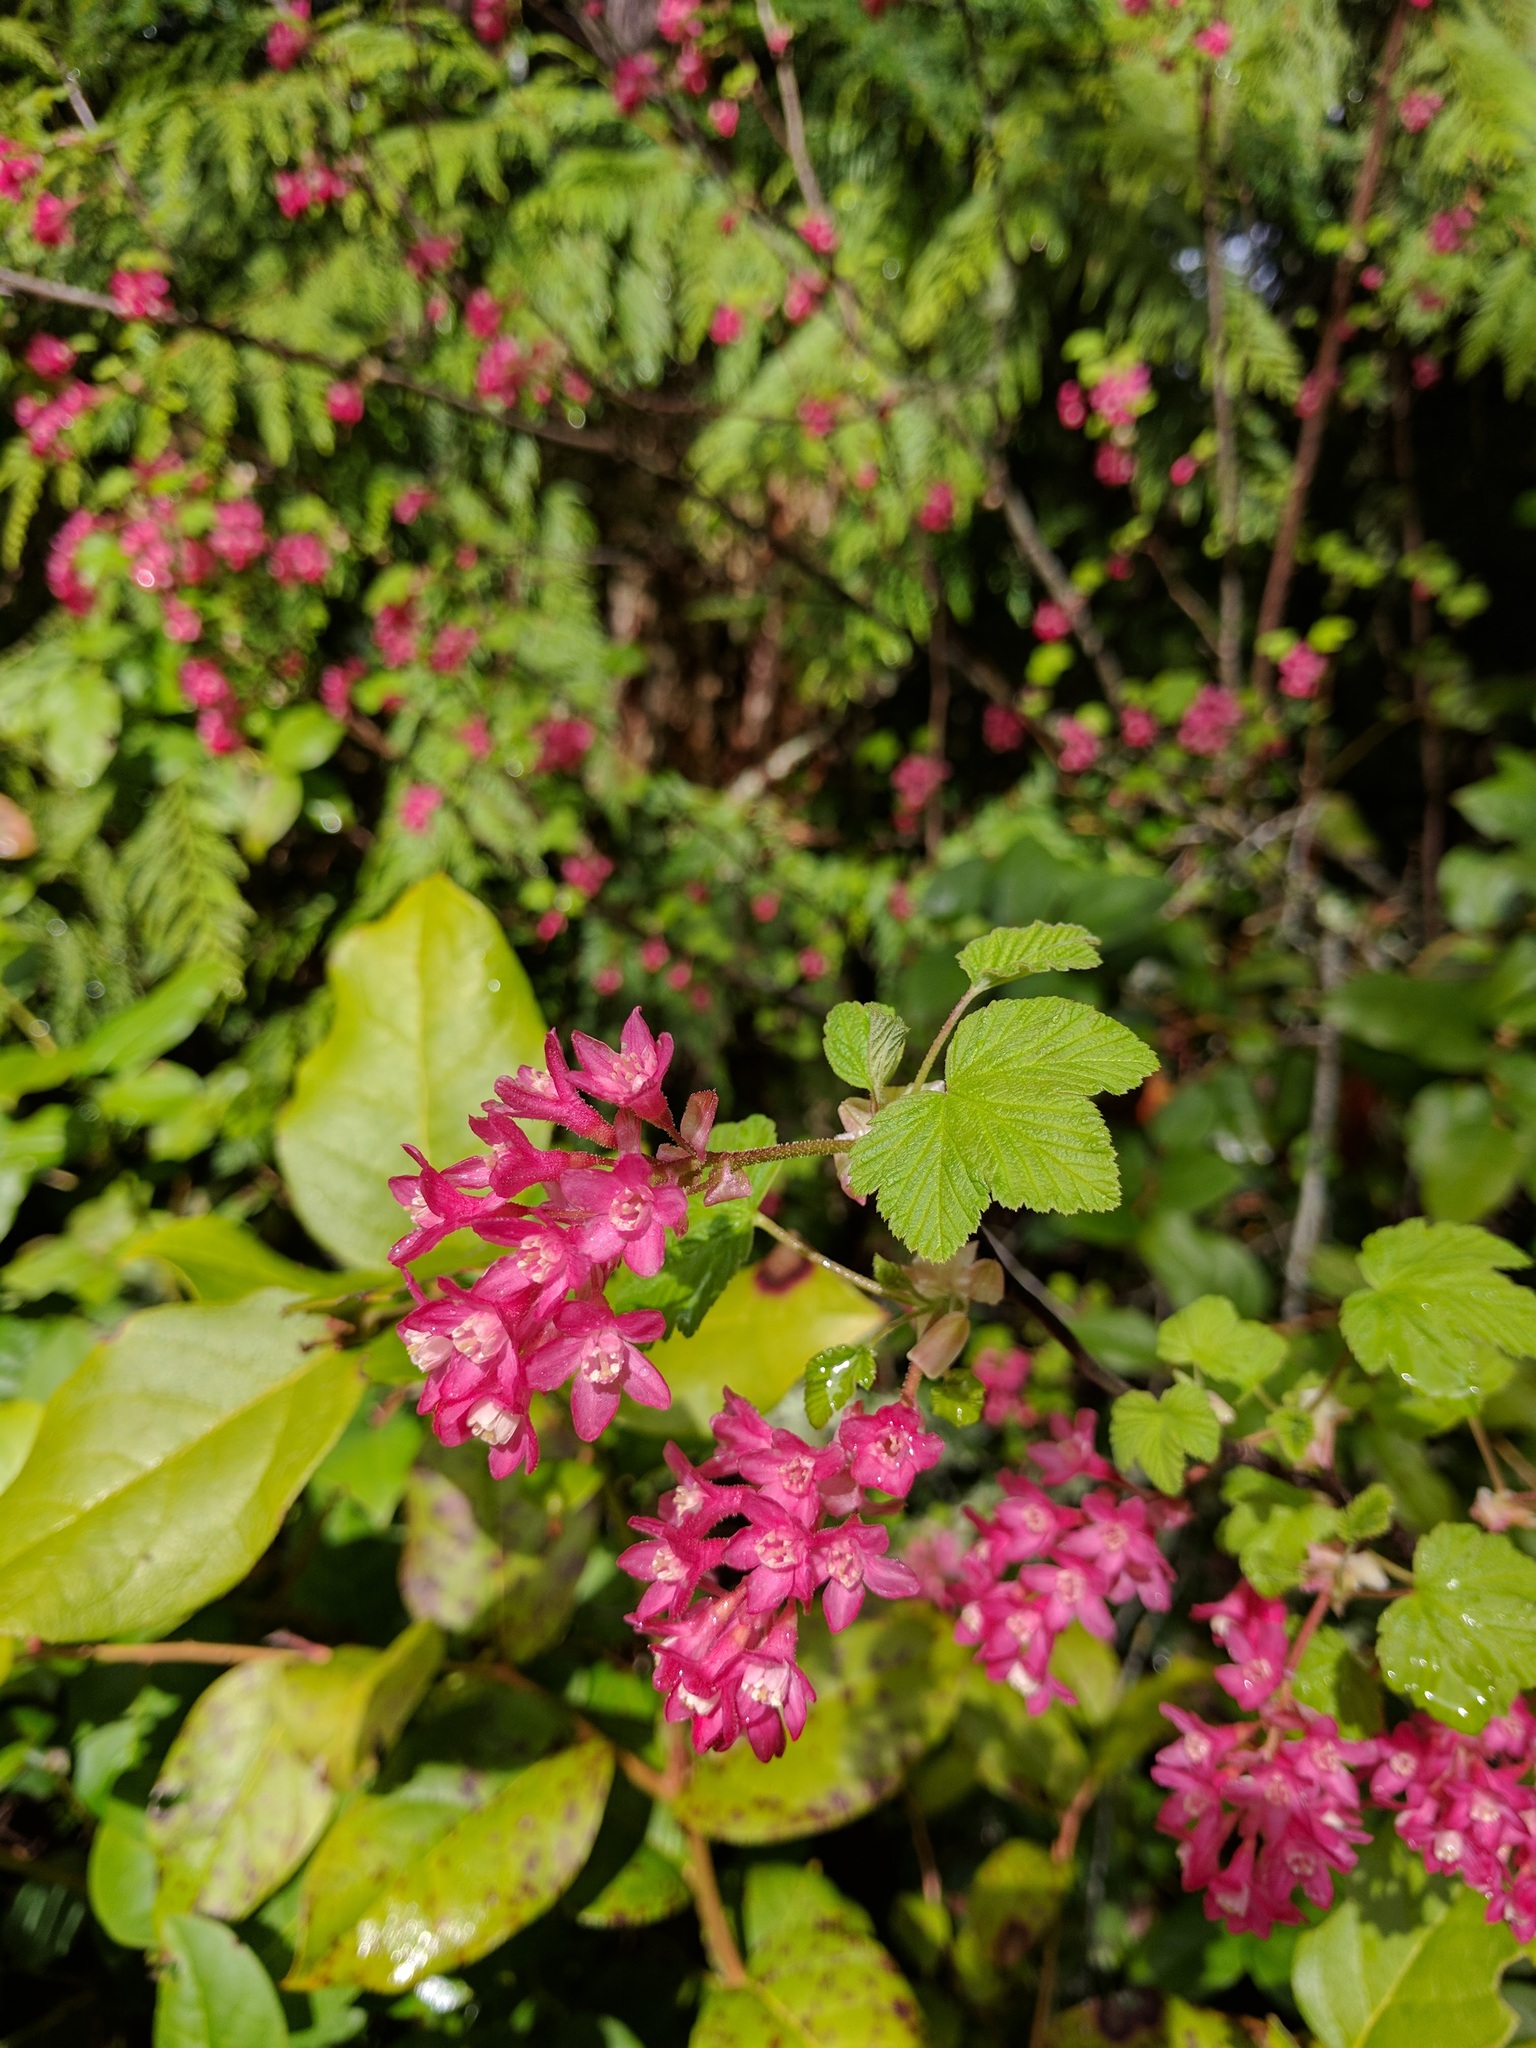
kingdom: Plantae
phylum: Tracheophyta
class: Magnoliopsida
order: Saxifragales
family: Grossulariaceae
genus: Ribes
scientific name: Ribes sanguineum
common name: Flowering currant
